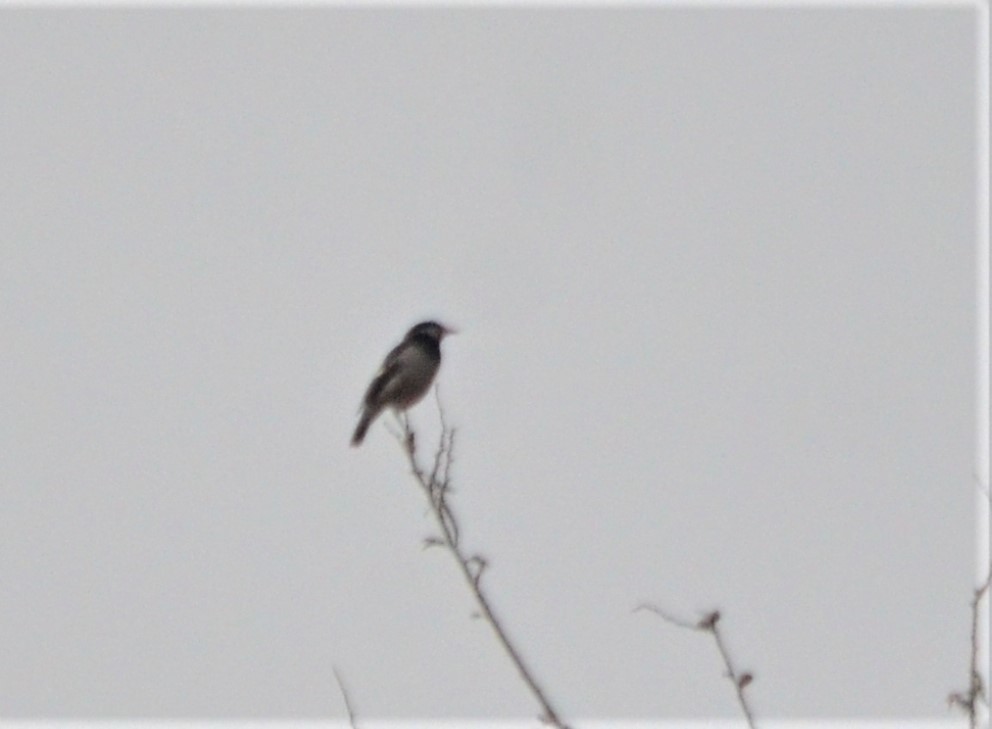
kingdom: Animalia
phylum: Chordata
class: Aves
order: Passeriformes
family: Sturnidae
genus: Gracupica
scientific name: Gracupica contra
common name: Pied myna
